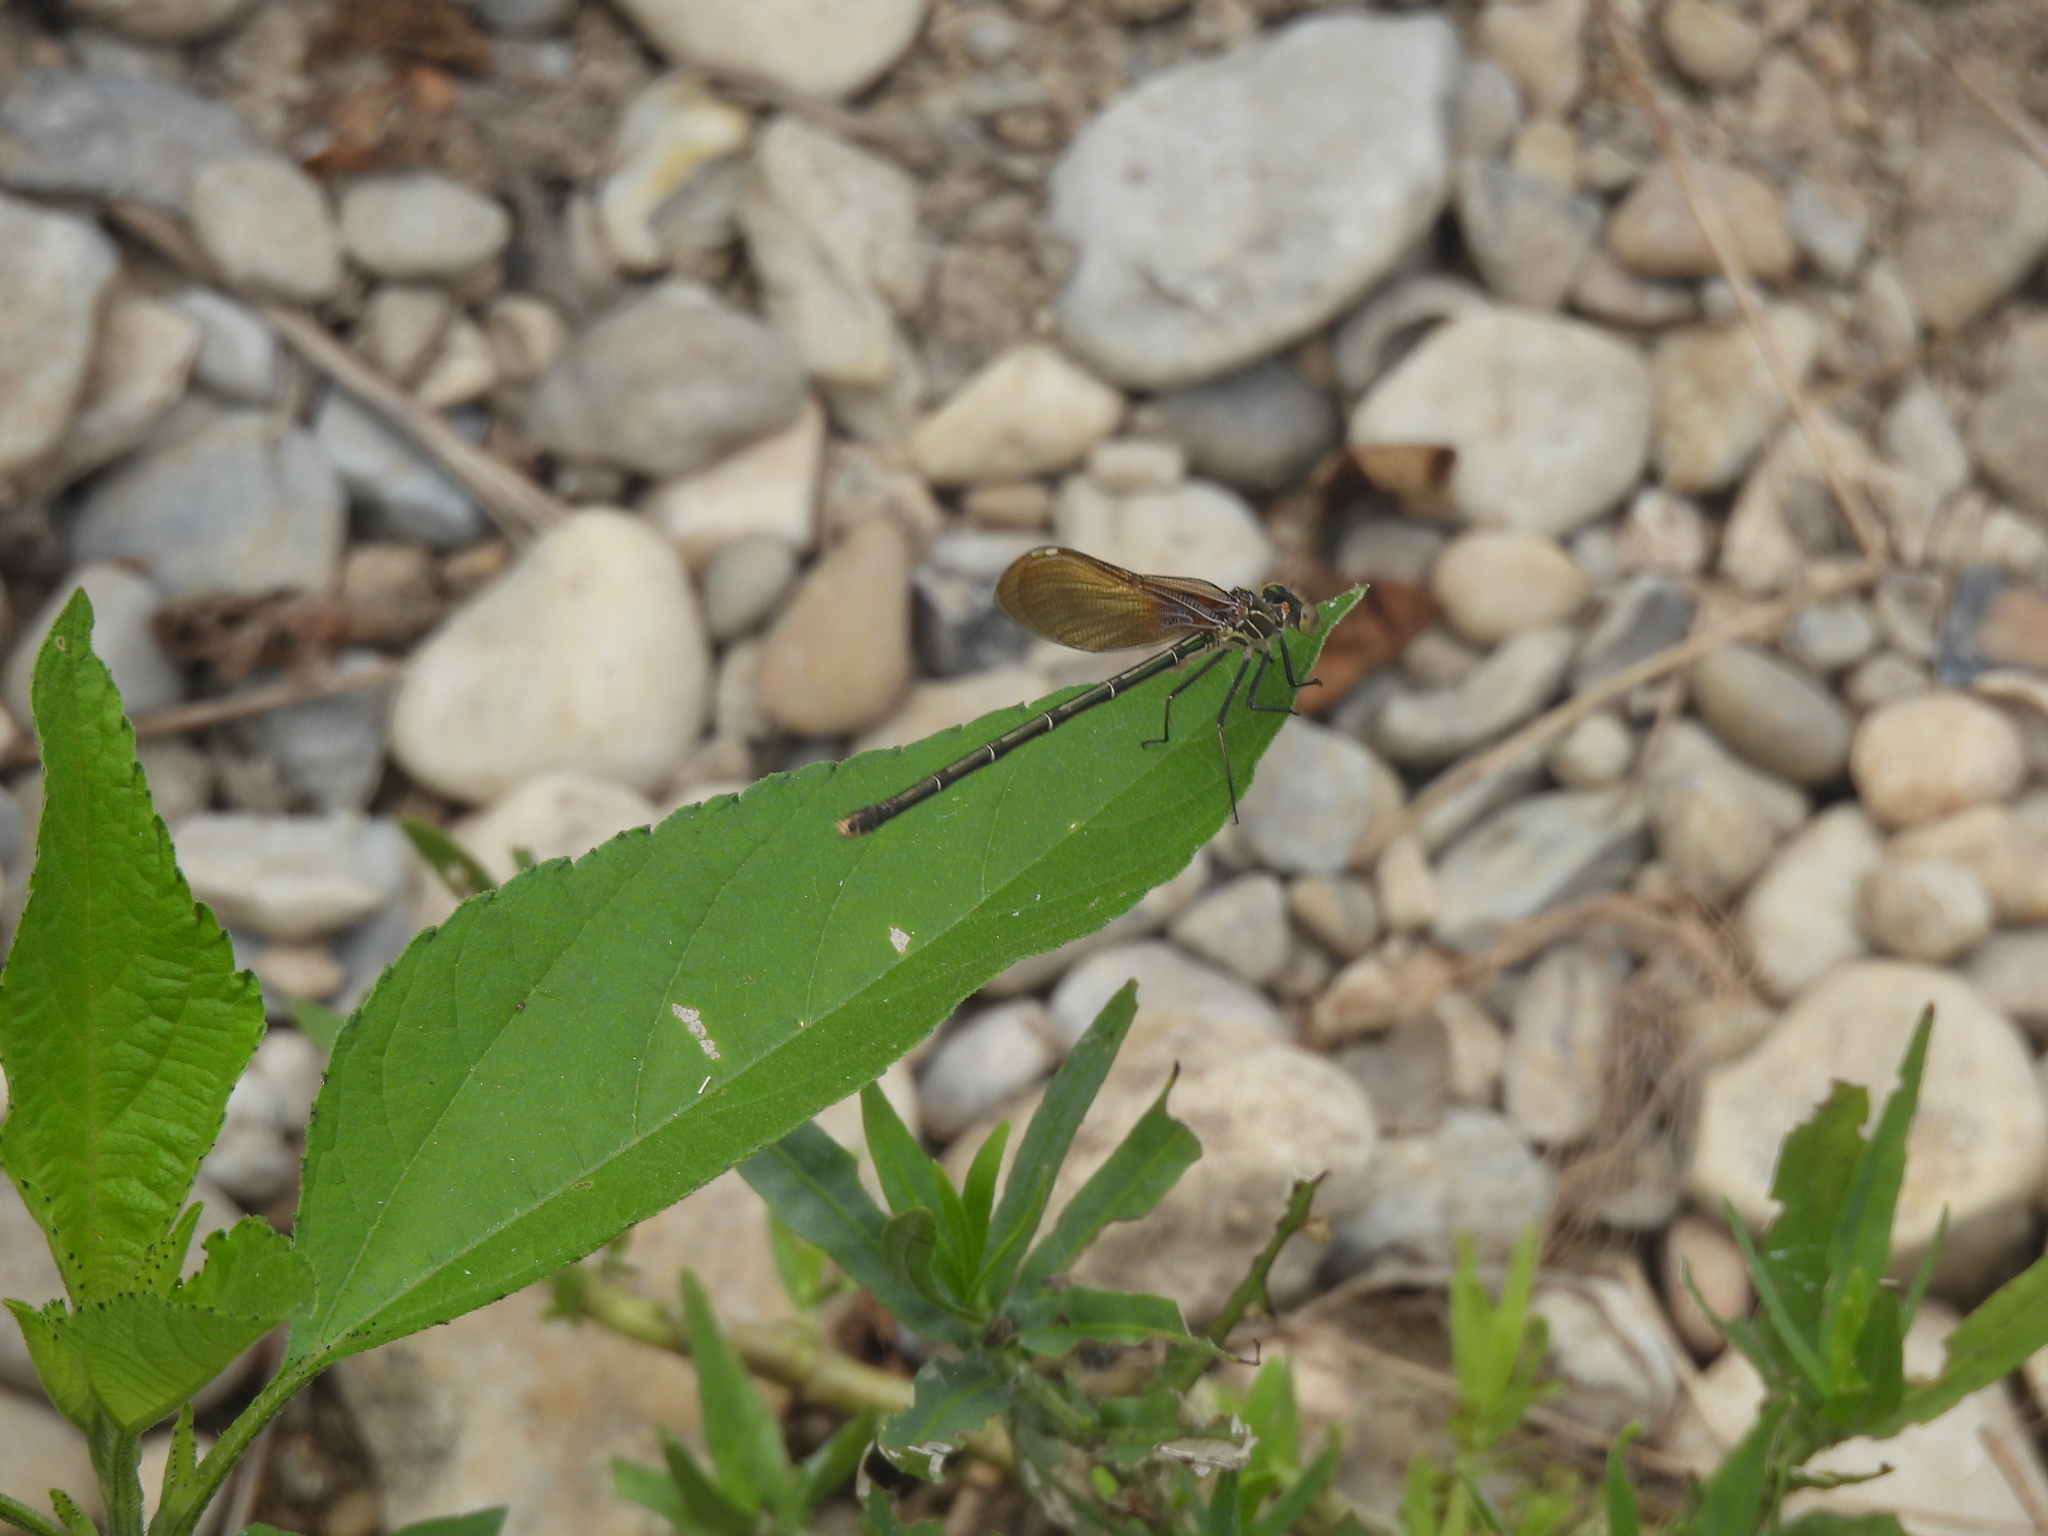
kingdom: Animalia
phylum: Arthropoda
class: Insecta
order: Odonata
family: Calopterygidae
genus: Hetaerina
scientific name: Hetaerina americana
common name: American rubyspot
